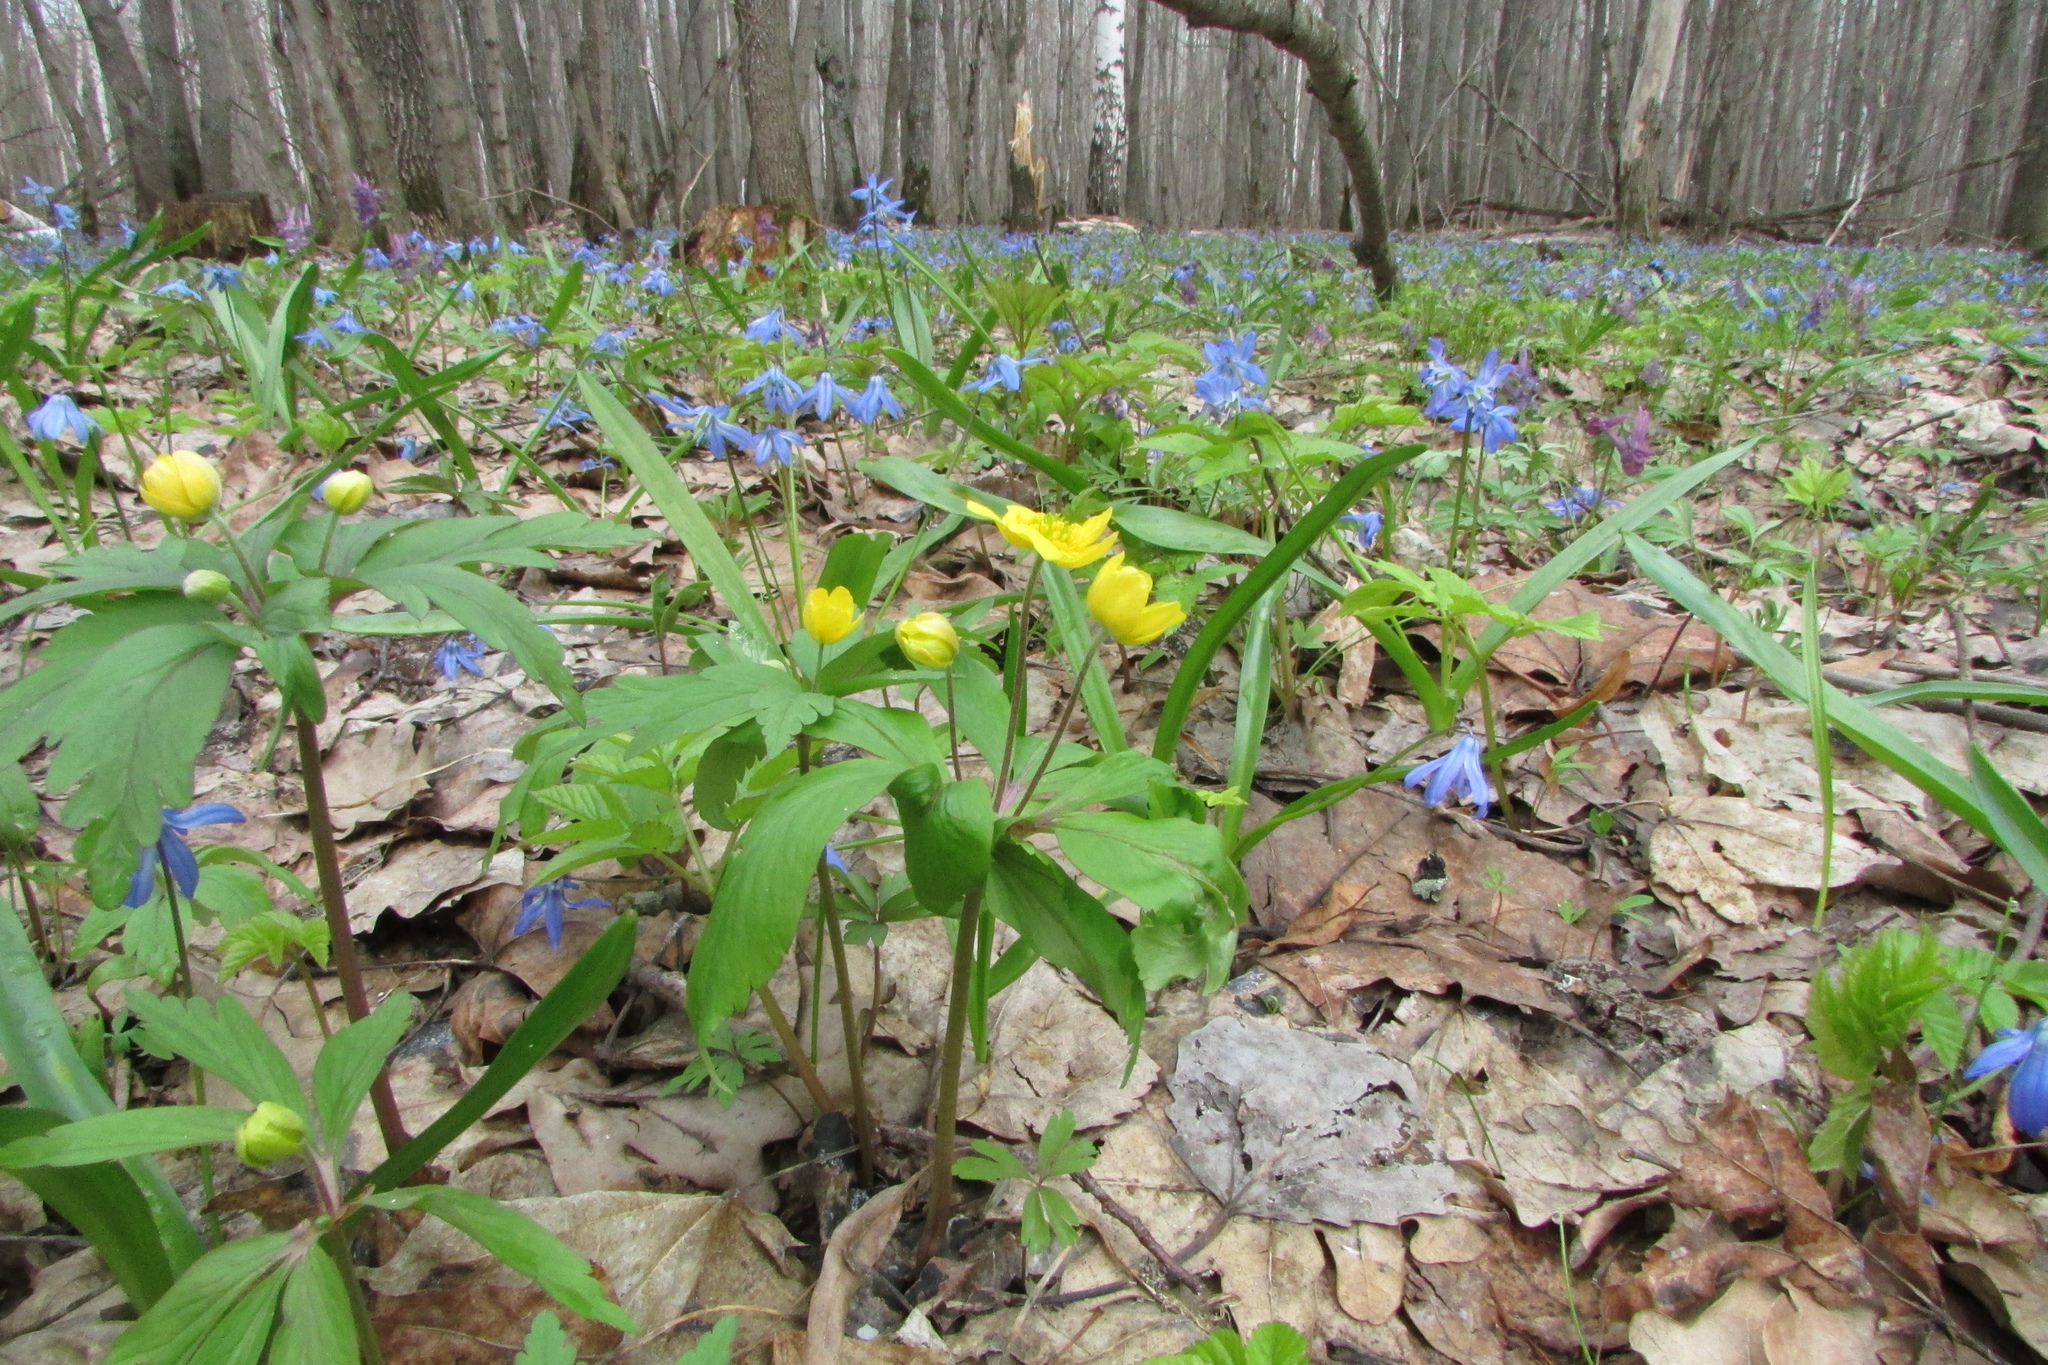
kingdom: Plantae
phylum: Tracheophyta
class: Magnoliopsida
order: Ranunculales
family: Ranunculaceae
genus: Anemone
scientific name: Anemone ranunculoides
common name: Yellow anemone
